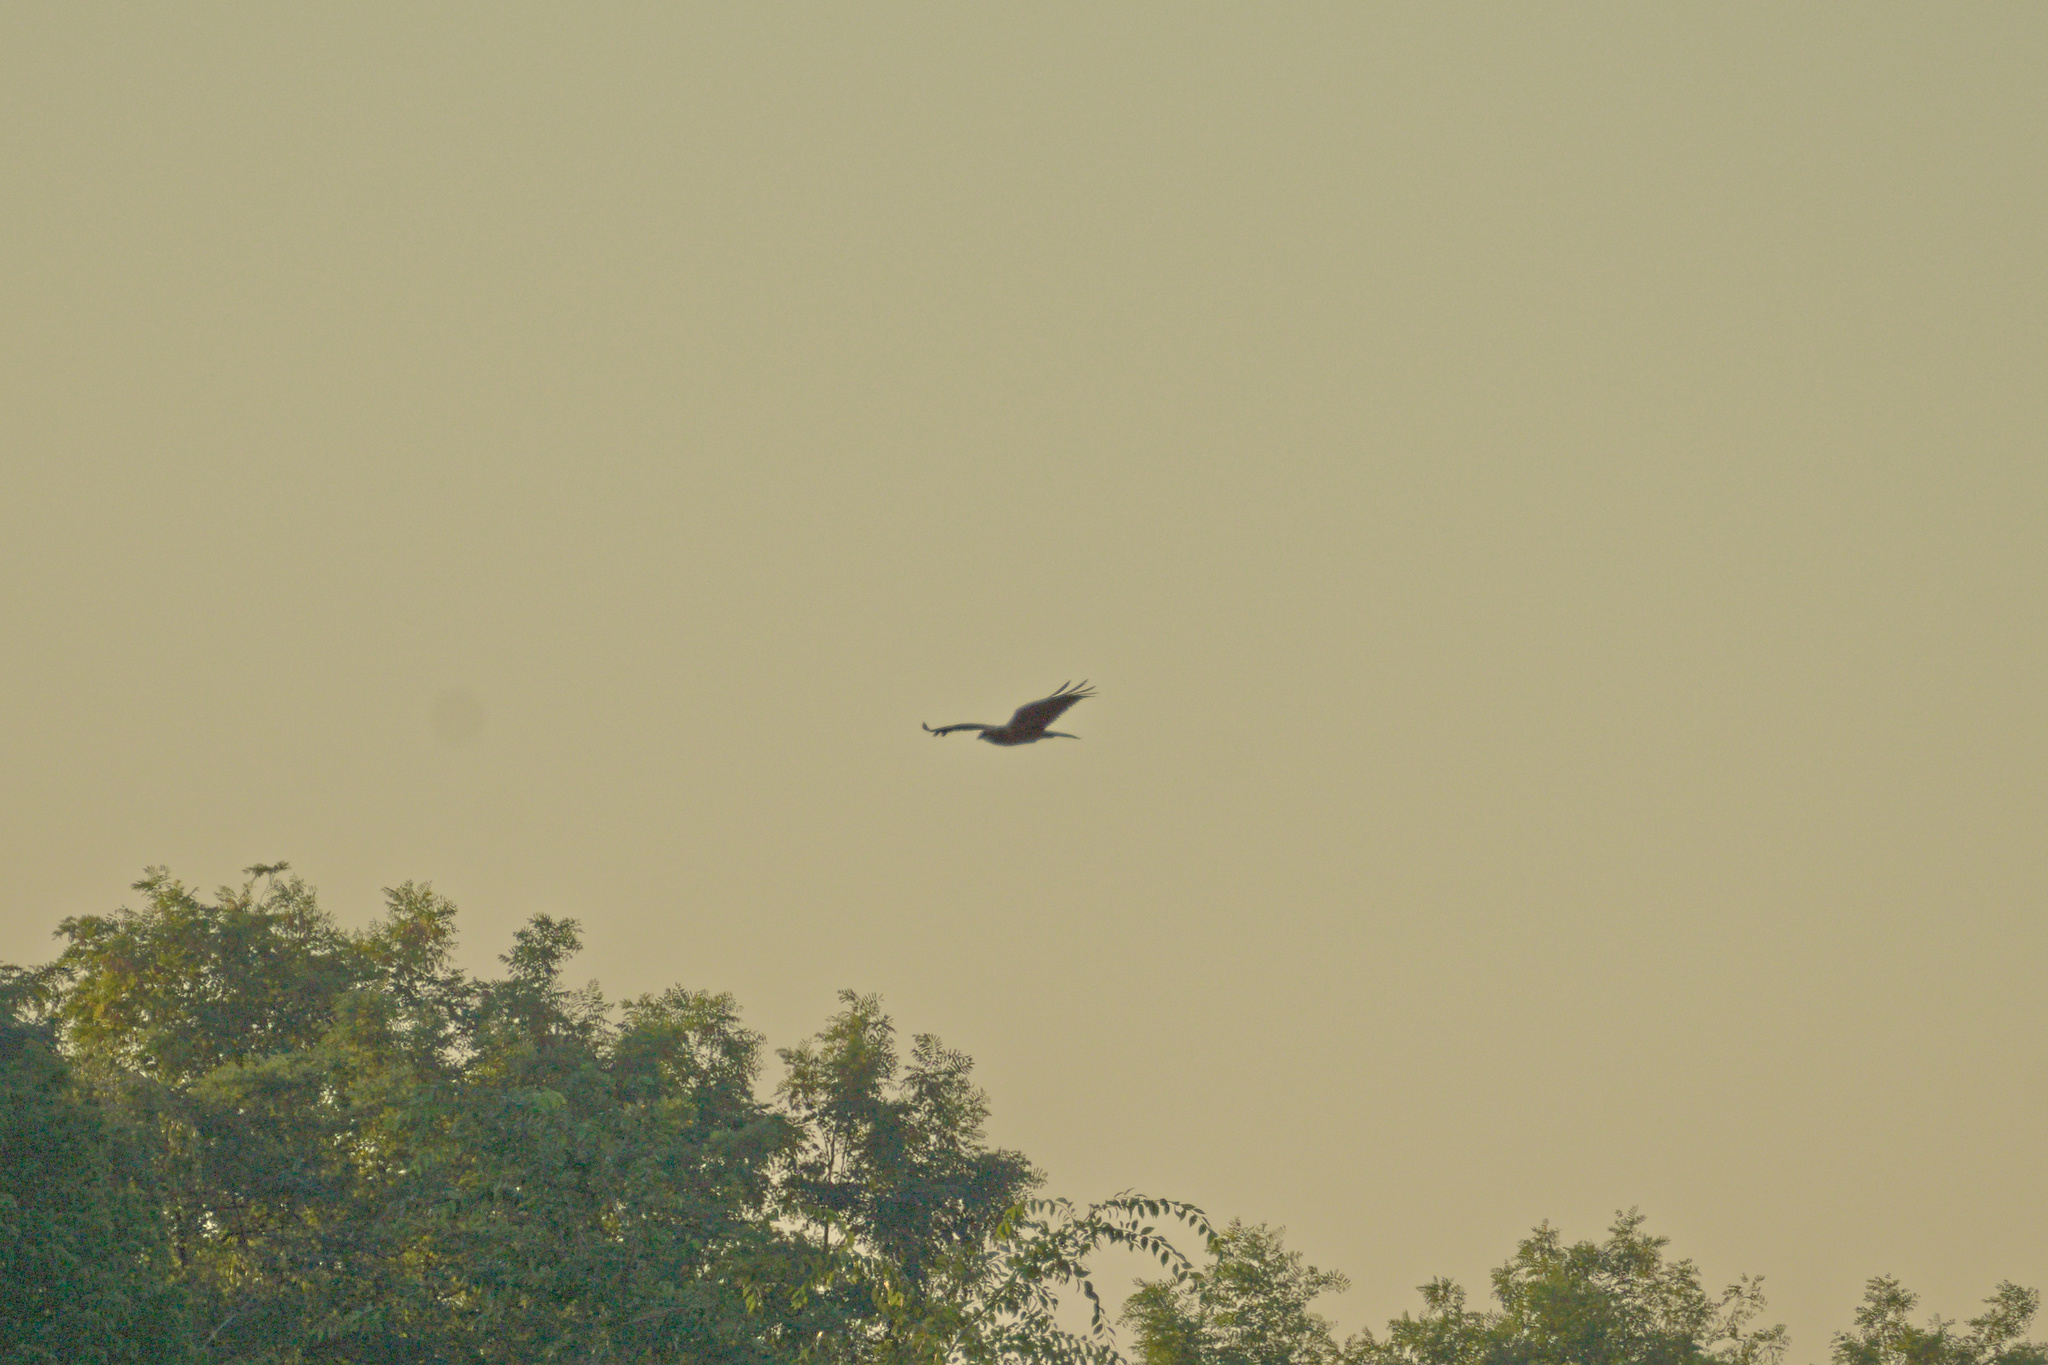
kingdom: Animalia
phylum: Chordata
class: Aves
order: Accipitriformes
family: Accipitridae
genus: Circus
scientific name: Circus aeruginosus
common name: Western marsh harrier
